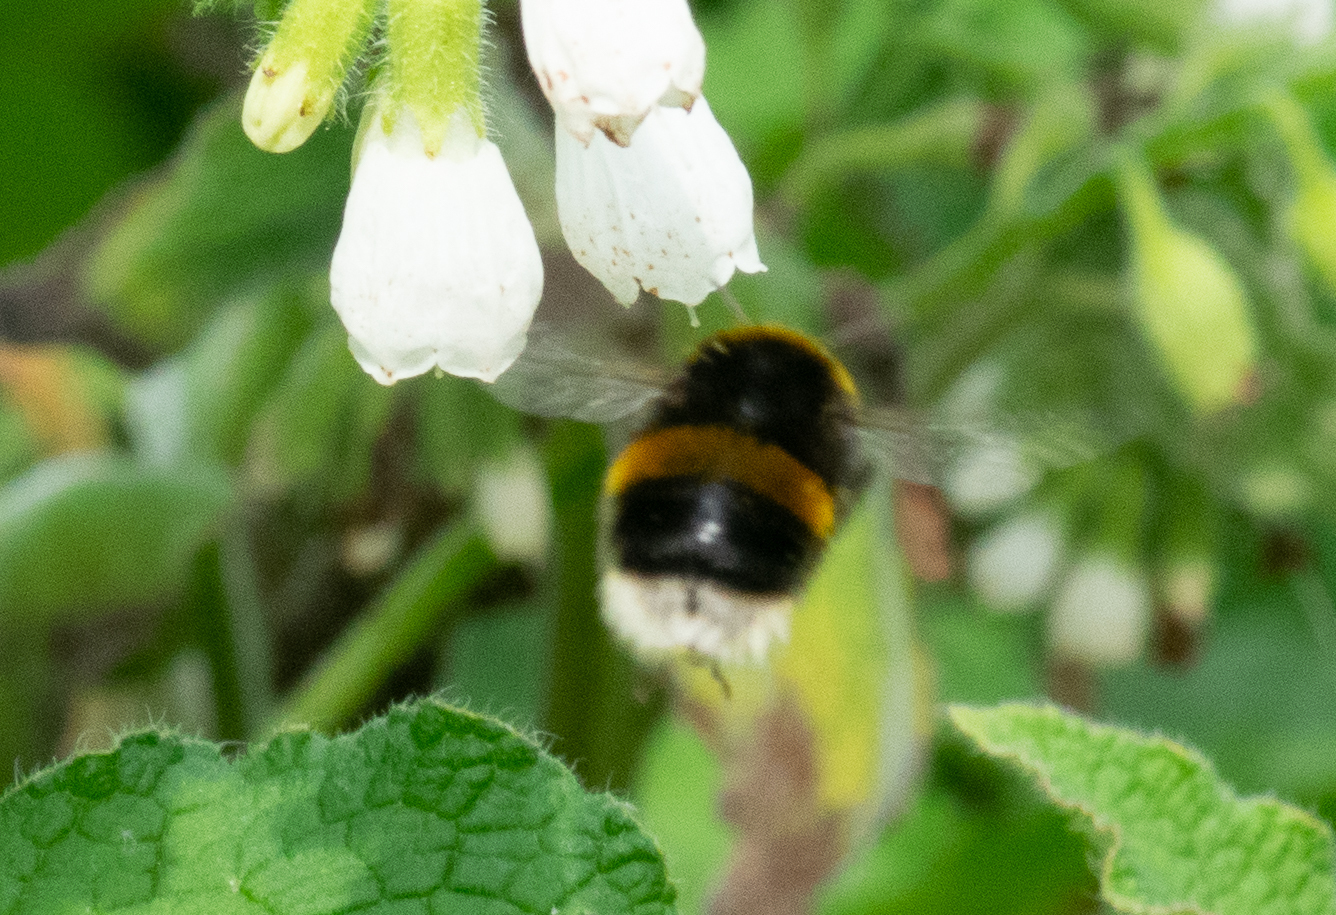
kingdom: Animalia
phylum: Arthropoda
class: Insecta
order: Hymenoptera
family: Apidae
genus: Bombus
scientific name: Bombus terrestris
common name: Buff-tailed bumblebee
